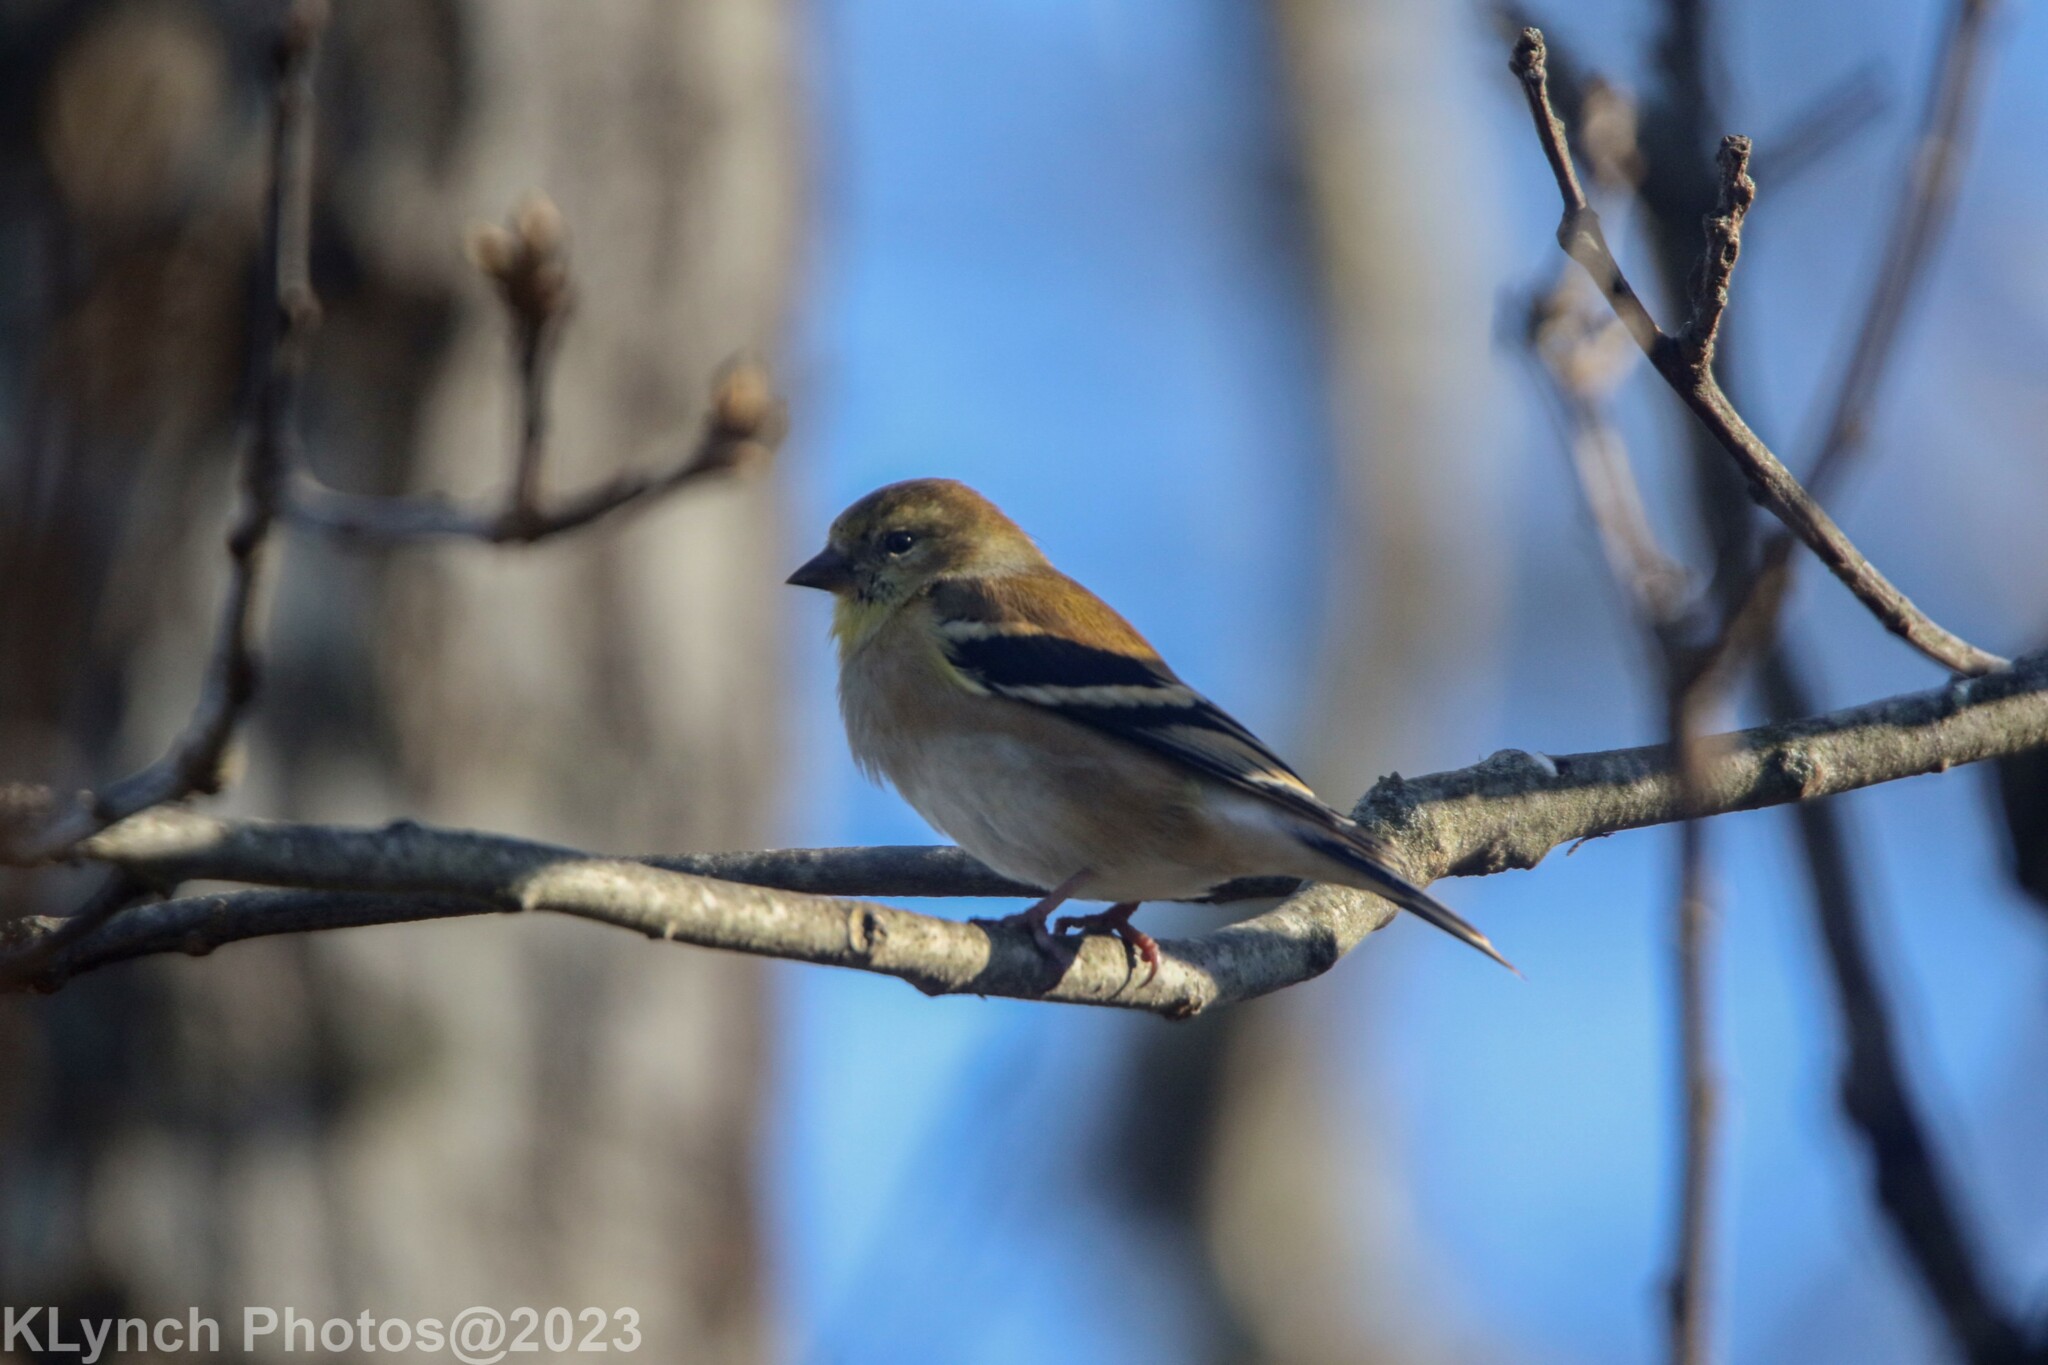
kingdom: Animalia
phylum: Chordata
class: Aves
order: Passeriformes
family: Fringillidae
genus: Spinus
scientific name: Spinus tristis
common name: American goldfinch
